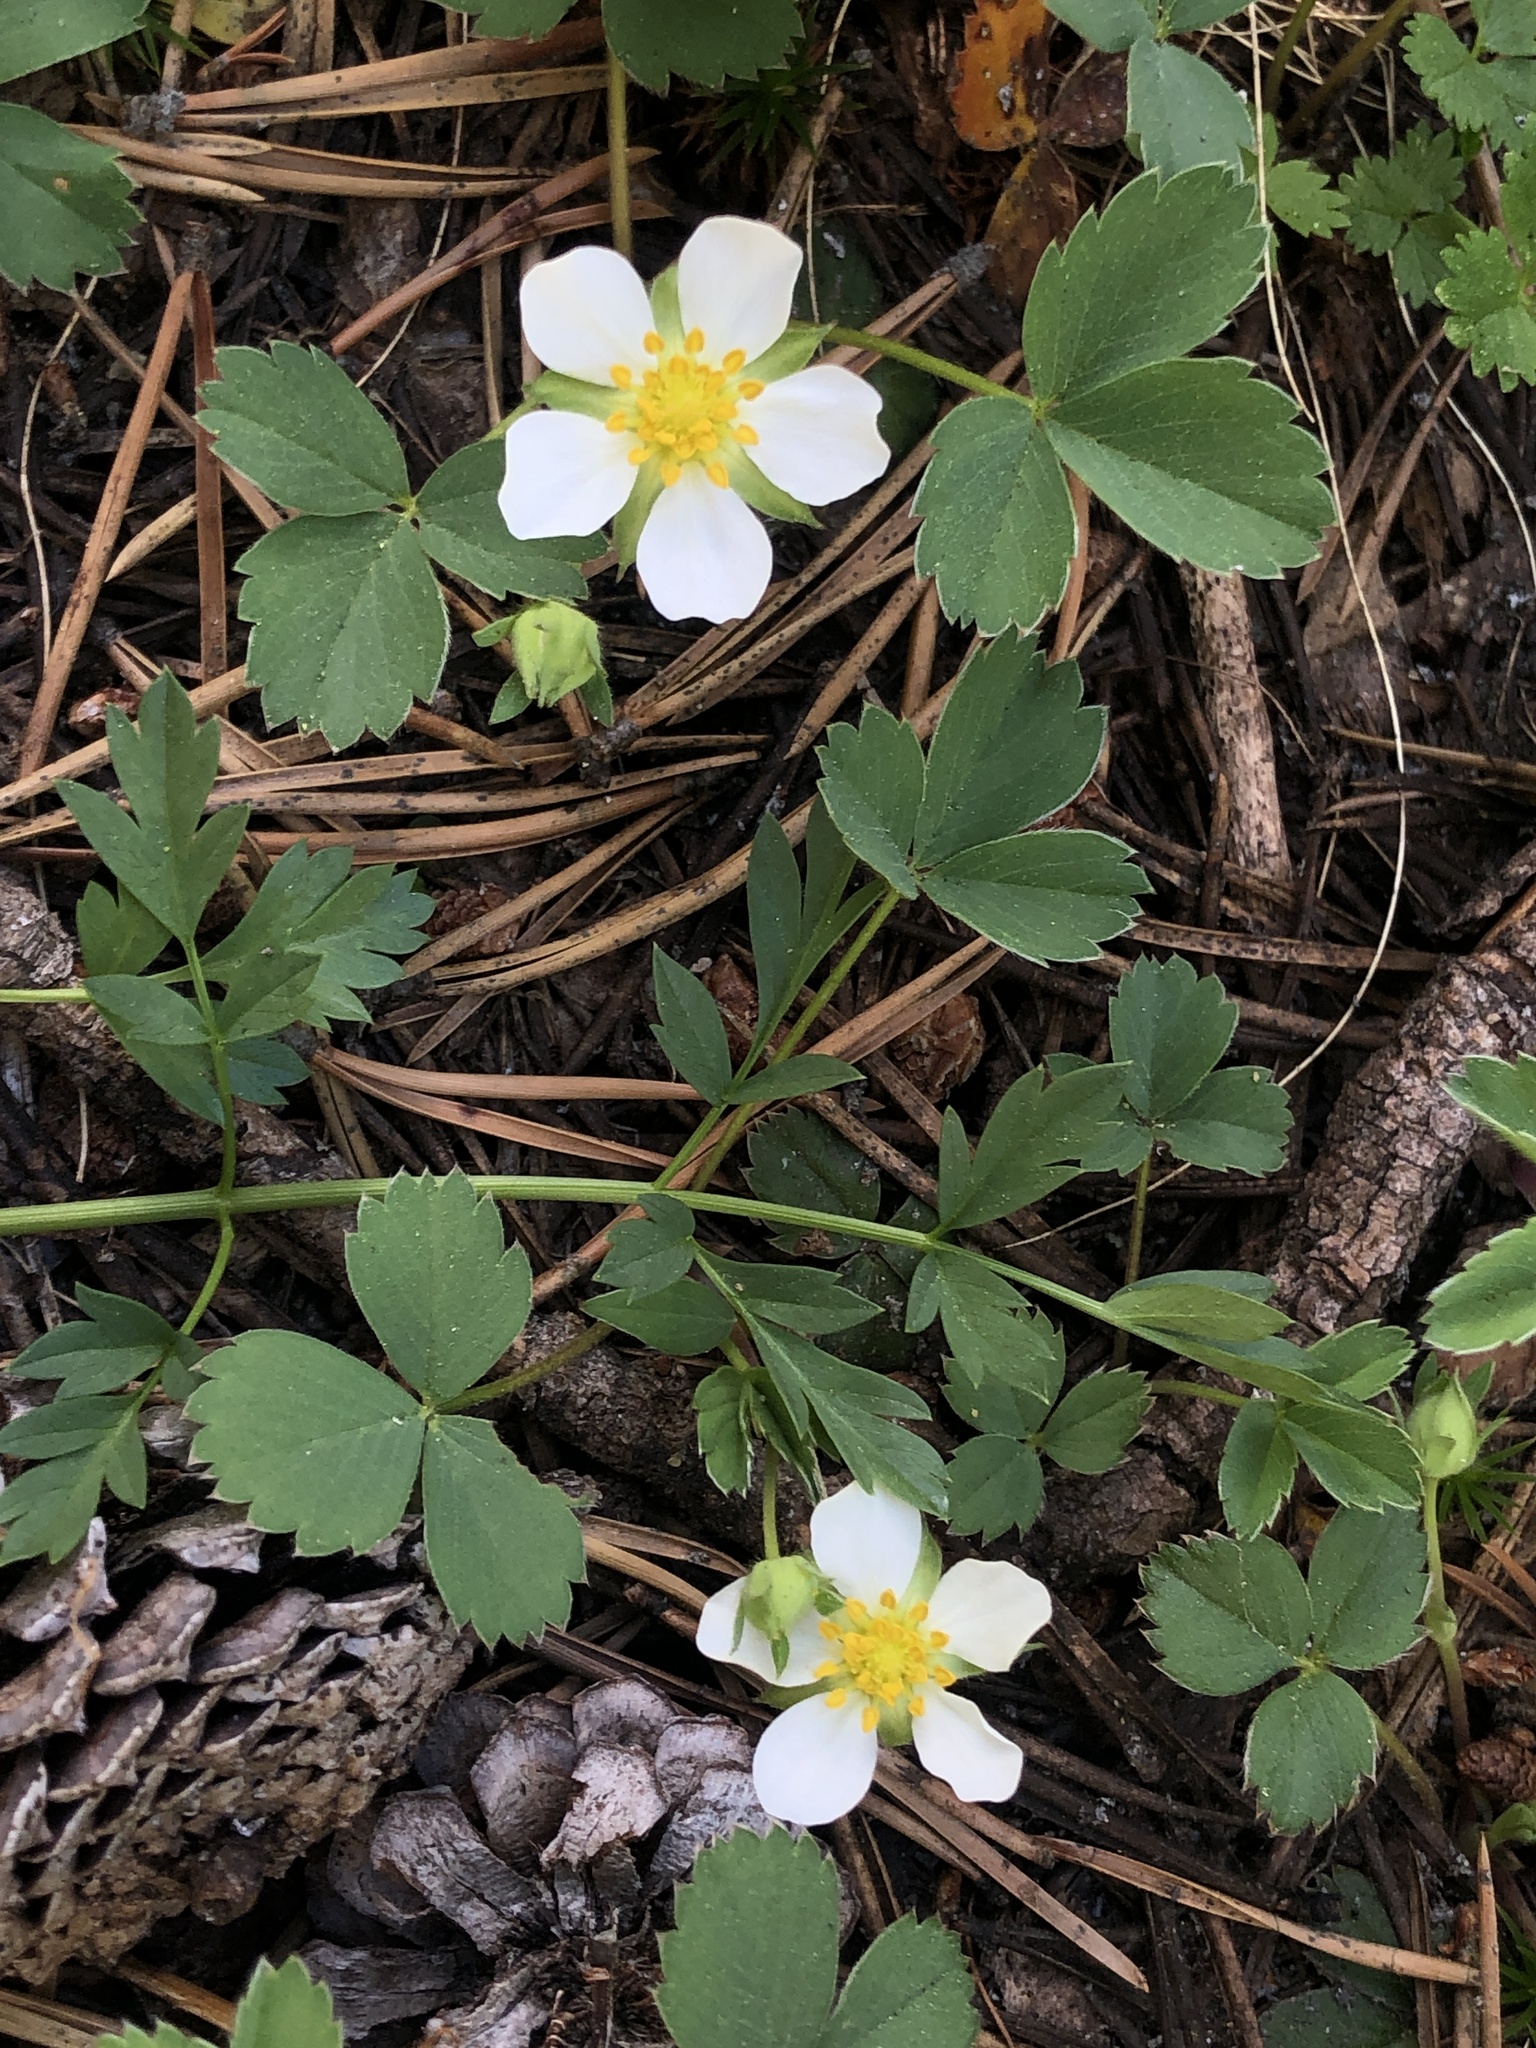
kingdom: Plantae
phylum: Tracheophyta
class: Magnoliopsida
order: Rosales
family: Rosaceae
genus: Fragaria
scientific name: Fragaria virginiana
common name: Thickleaved wild strawberry
